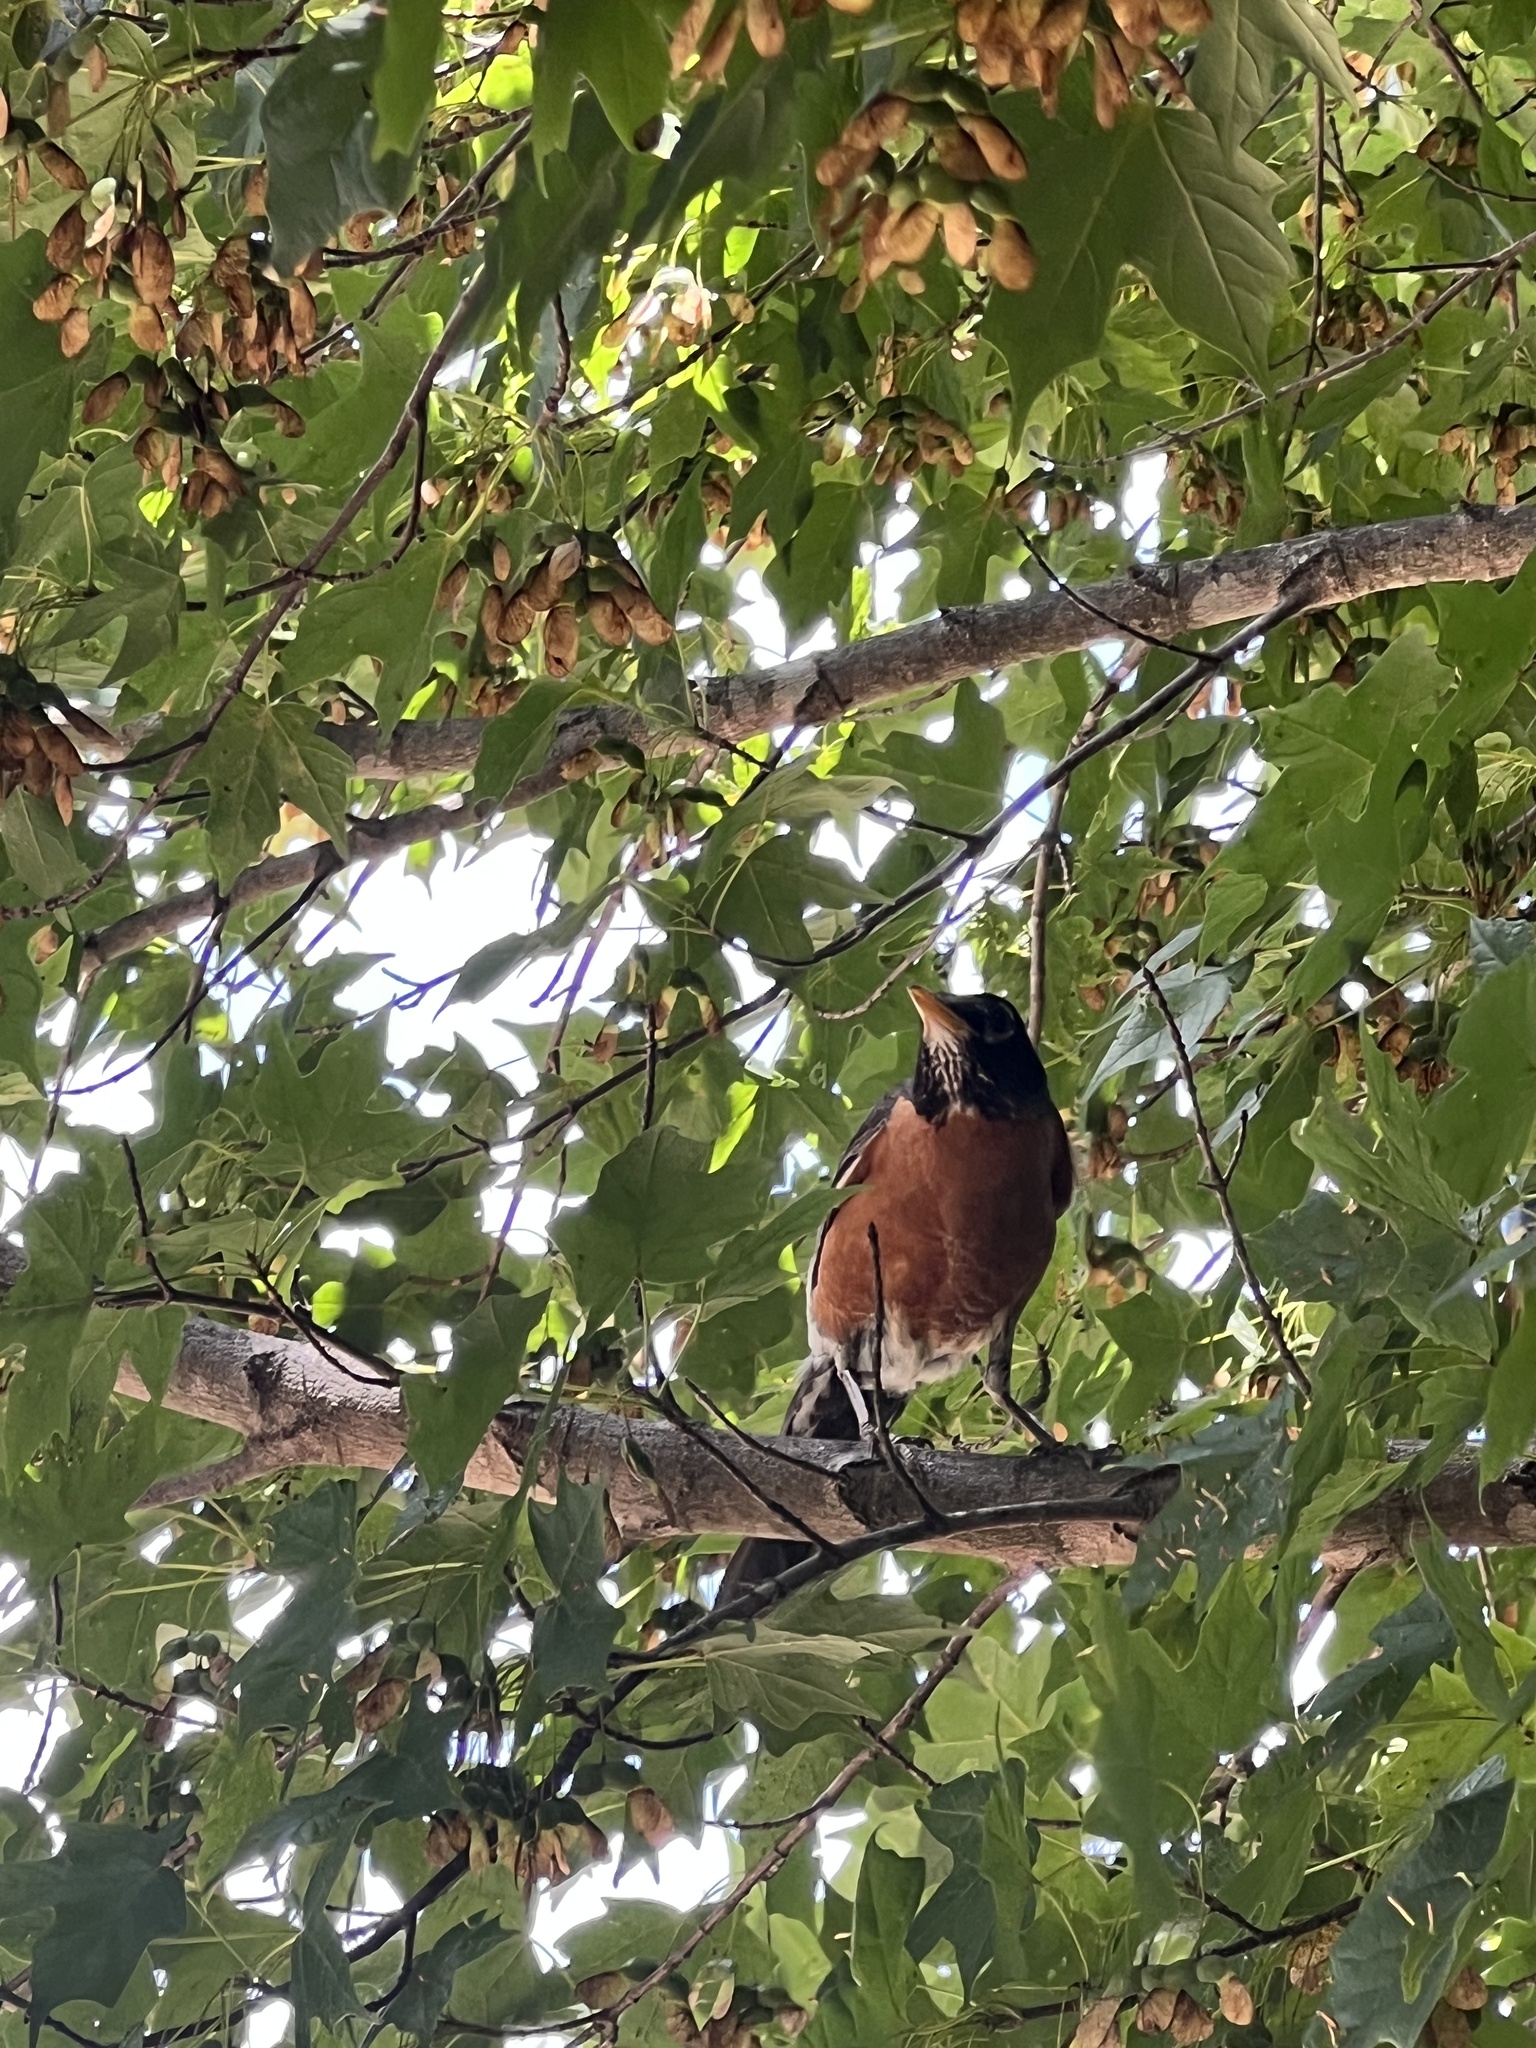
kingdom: Animalia
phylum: Chordata
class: Aves
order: Passeriformes
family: Turdidae
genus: Turdus
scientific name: Turdus migratorius
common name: American robin
